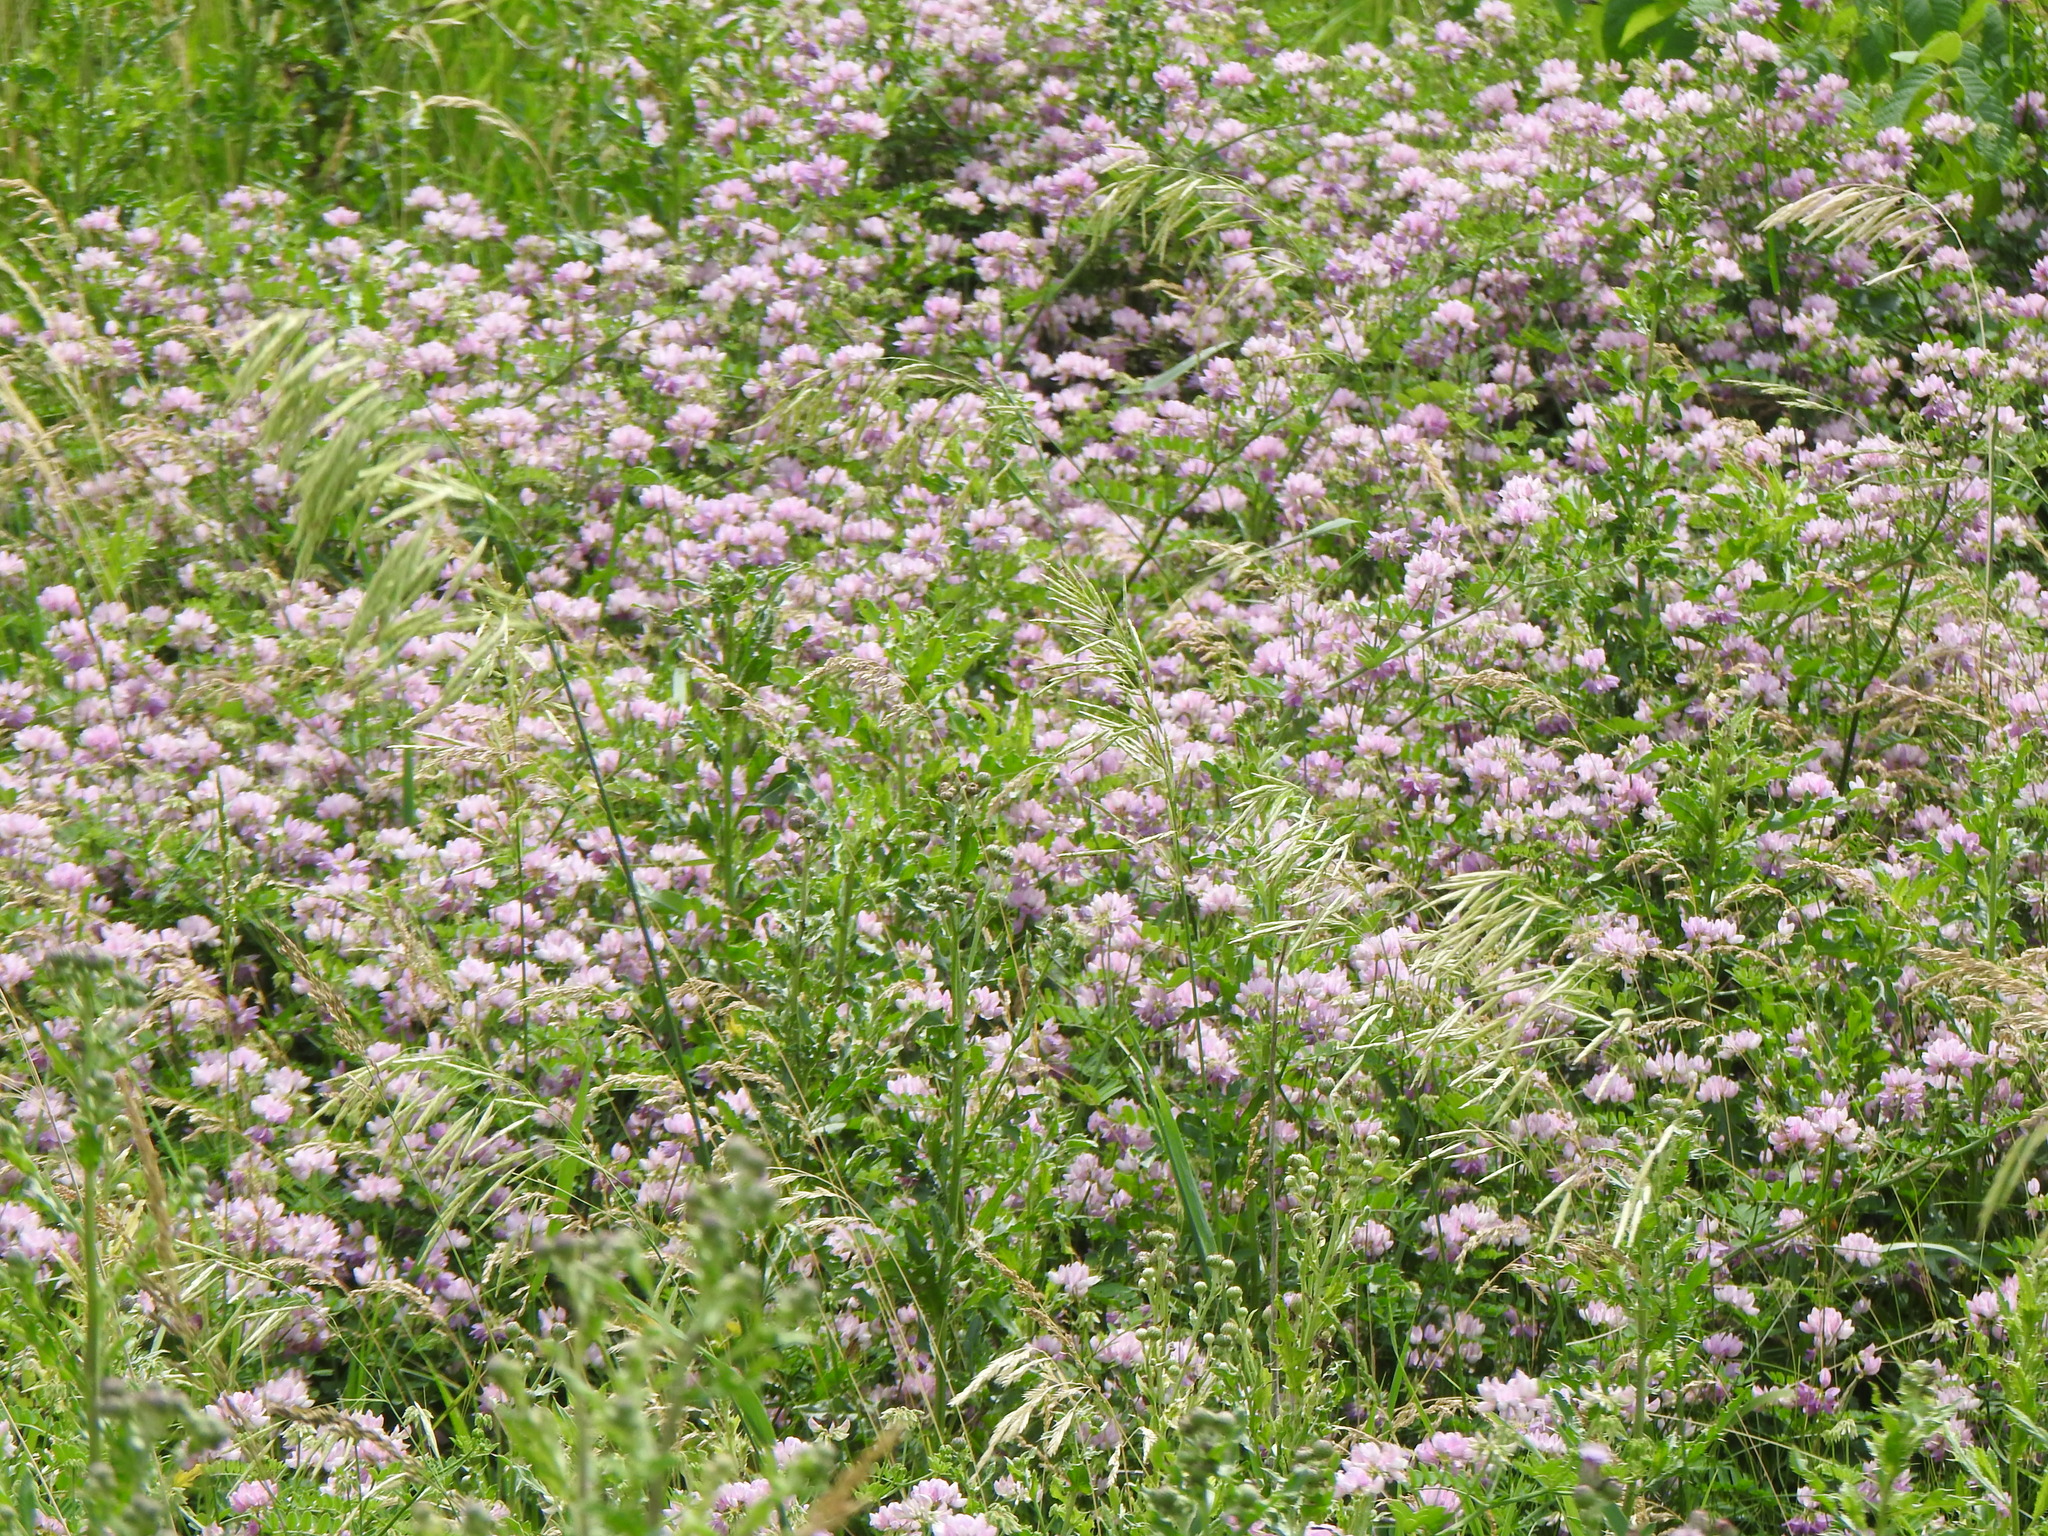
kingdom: Plantae
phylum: Tracheophyta
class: Magnoliopsida
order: Fabales
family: Fabaceae
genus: Coronilla
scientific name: Coronilla varia
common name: Crownvetch
